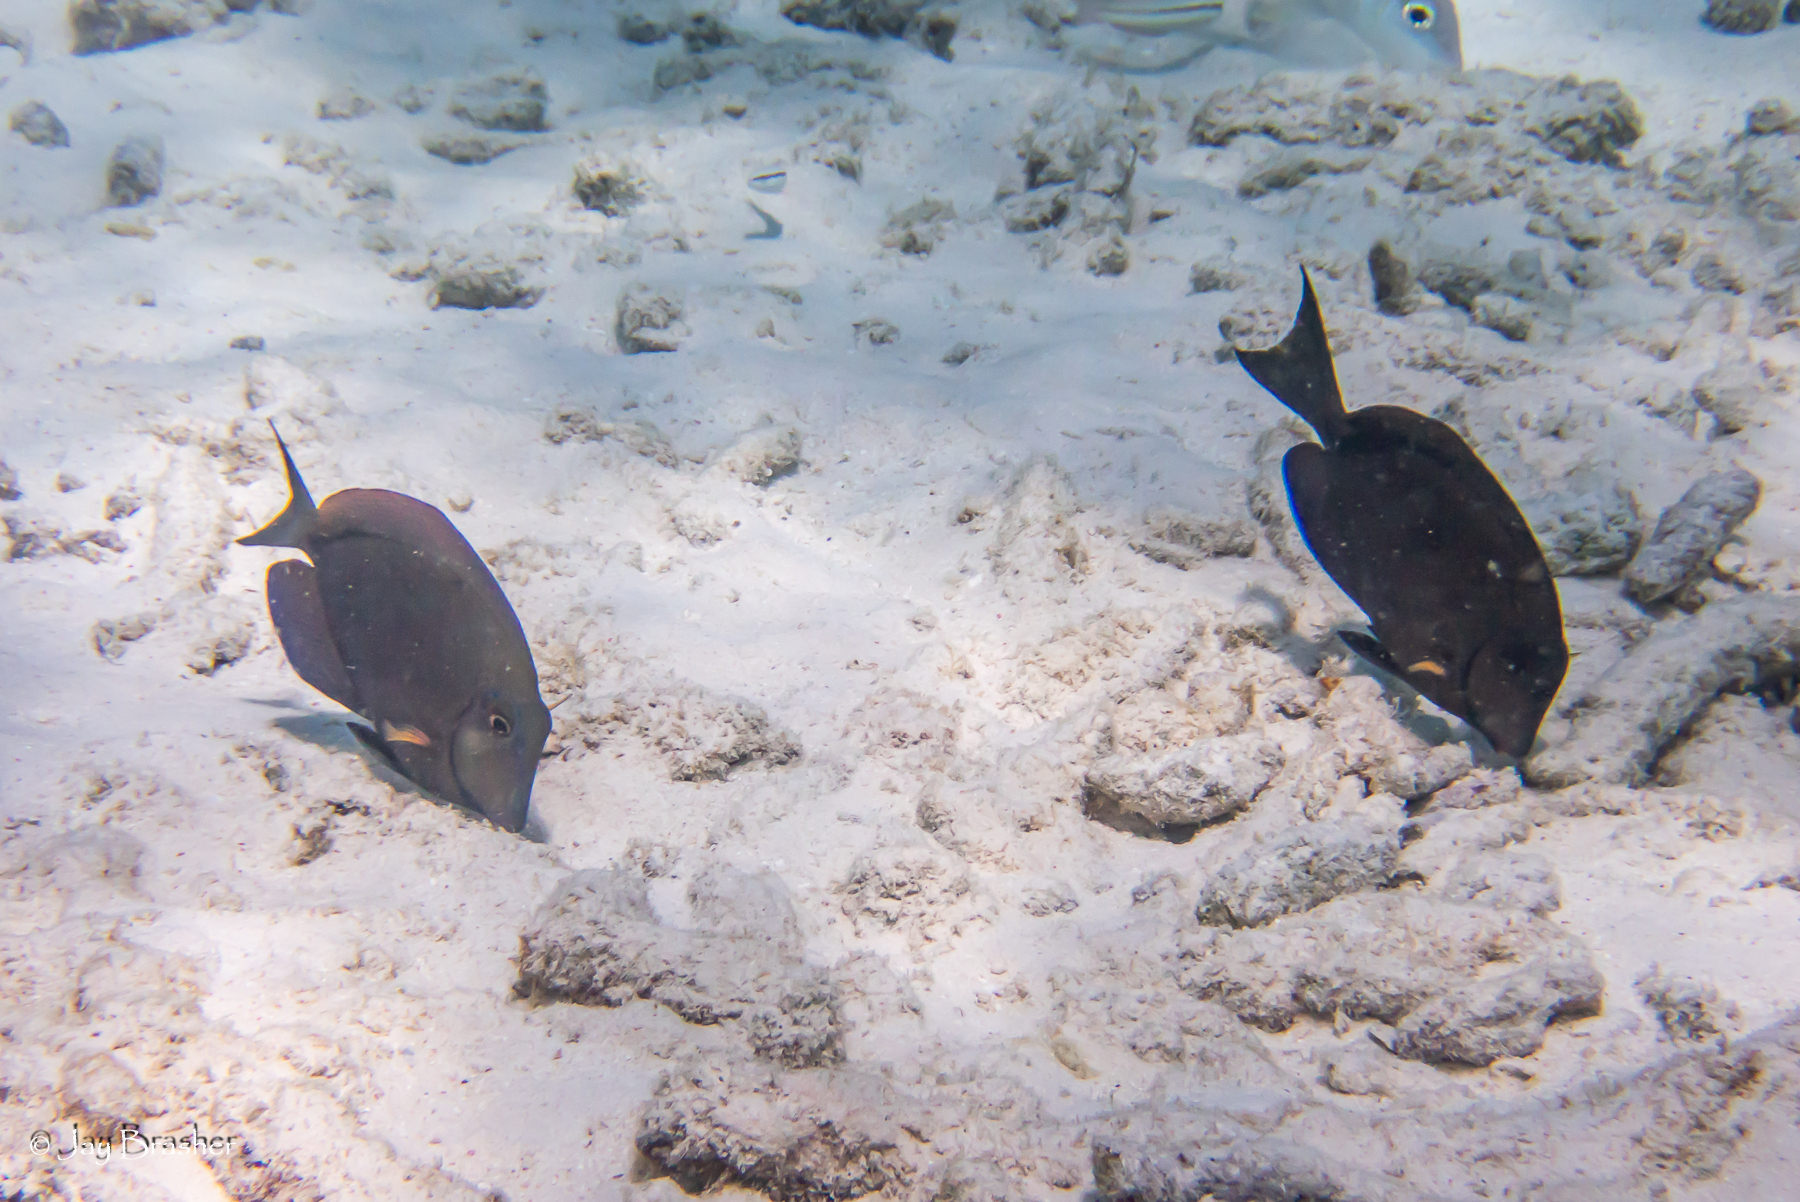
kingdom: Animalia
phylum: Chordata
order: Perciformes
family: Acanthuridae
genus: Acanthurus
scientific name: Acanthurus bahianus
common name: Ocean surgeon
